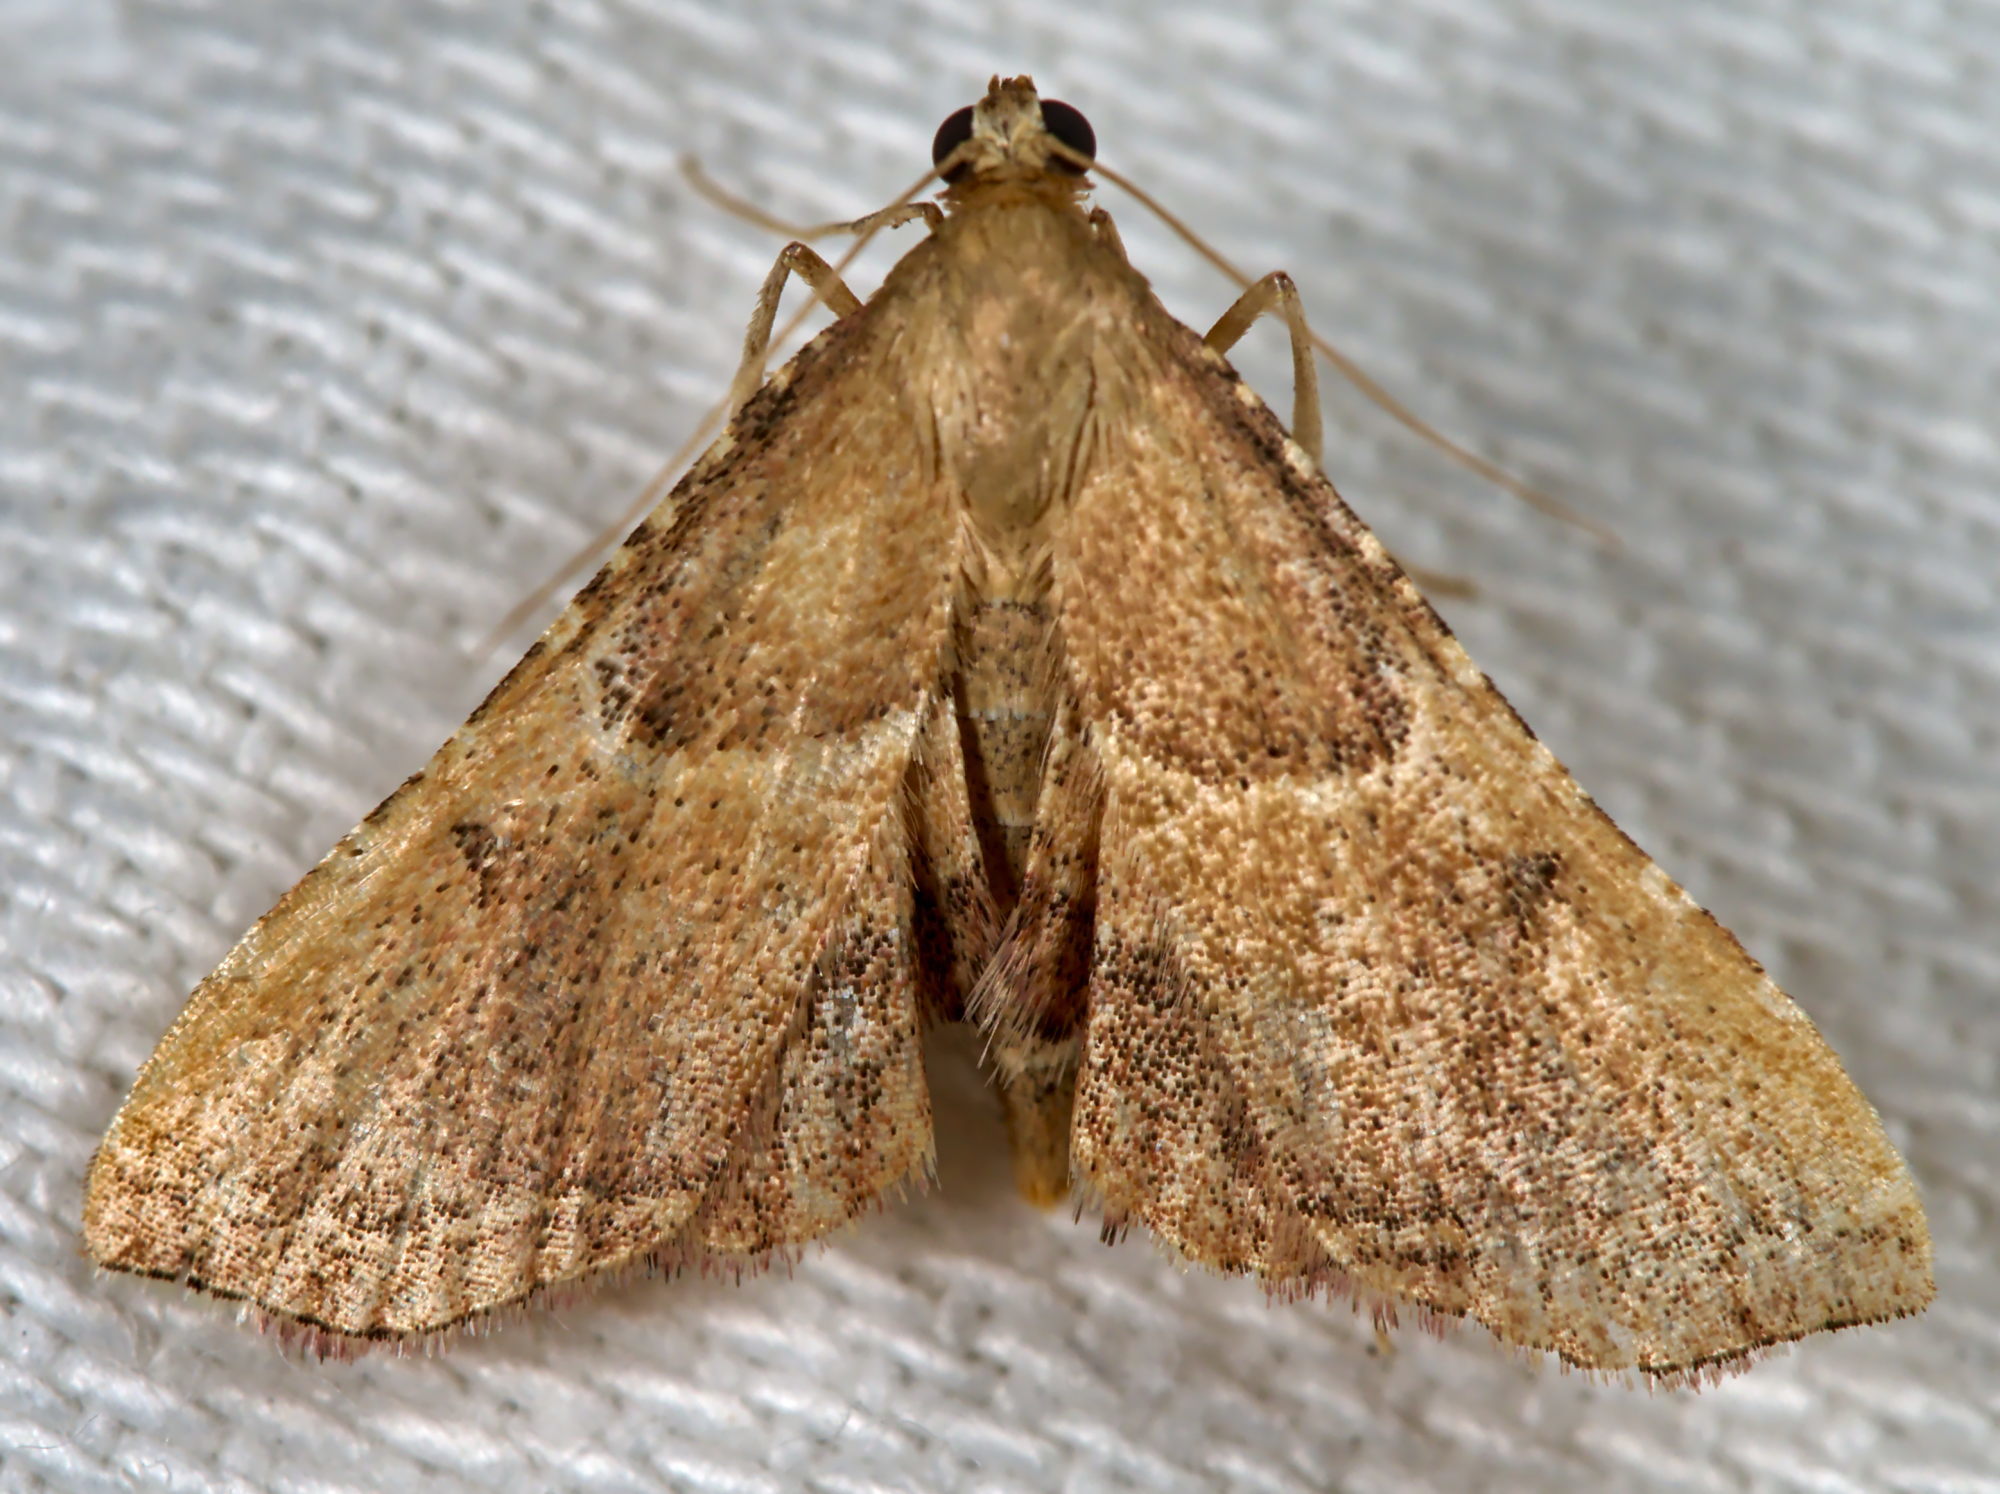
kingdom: Animalia
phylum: Arthropoda
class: Insecta
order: Lepidoptera
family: Pyralidae
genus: Endotricha
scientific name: Endotricha flammealis
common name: Rosy tabby
